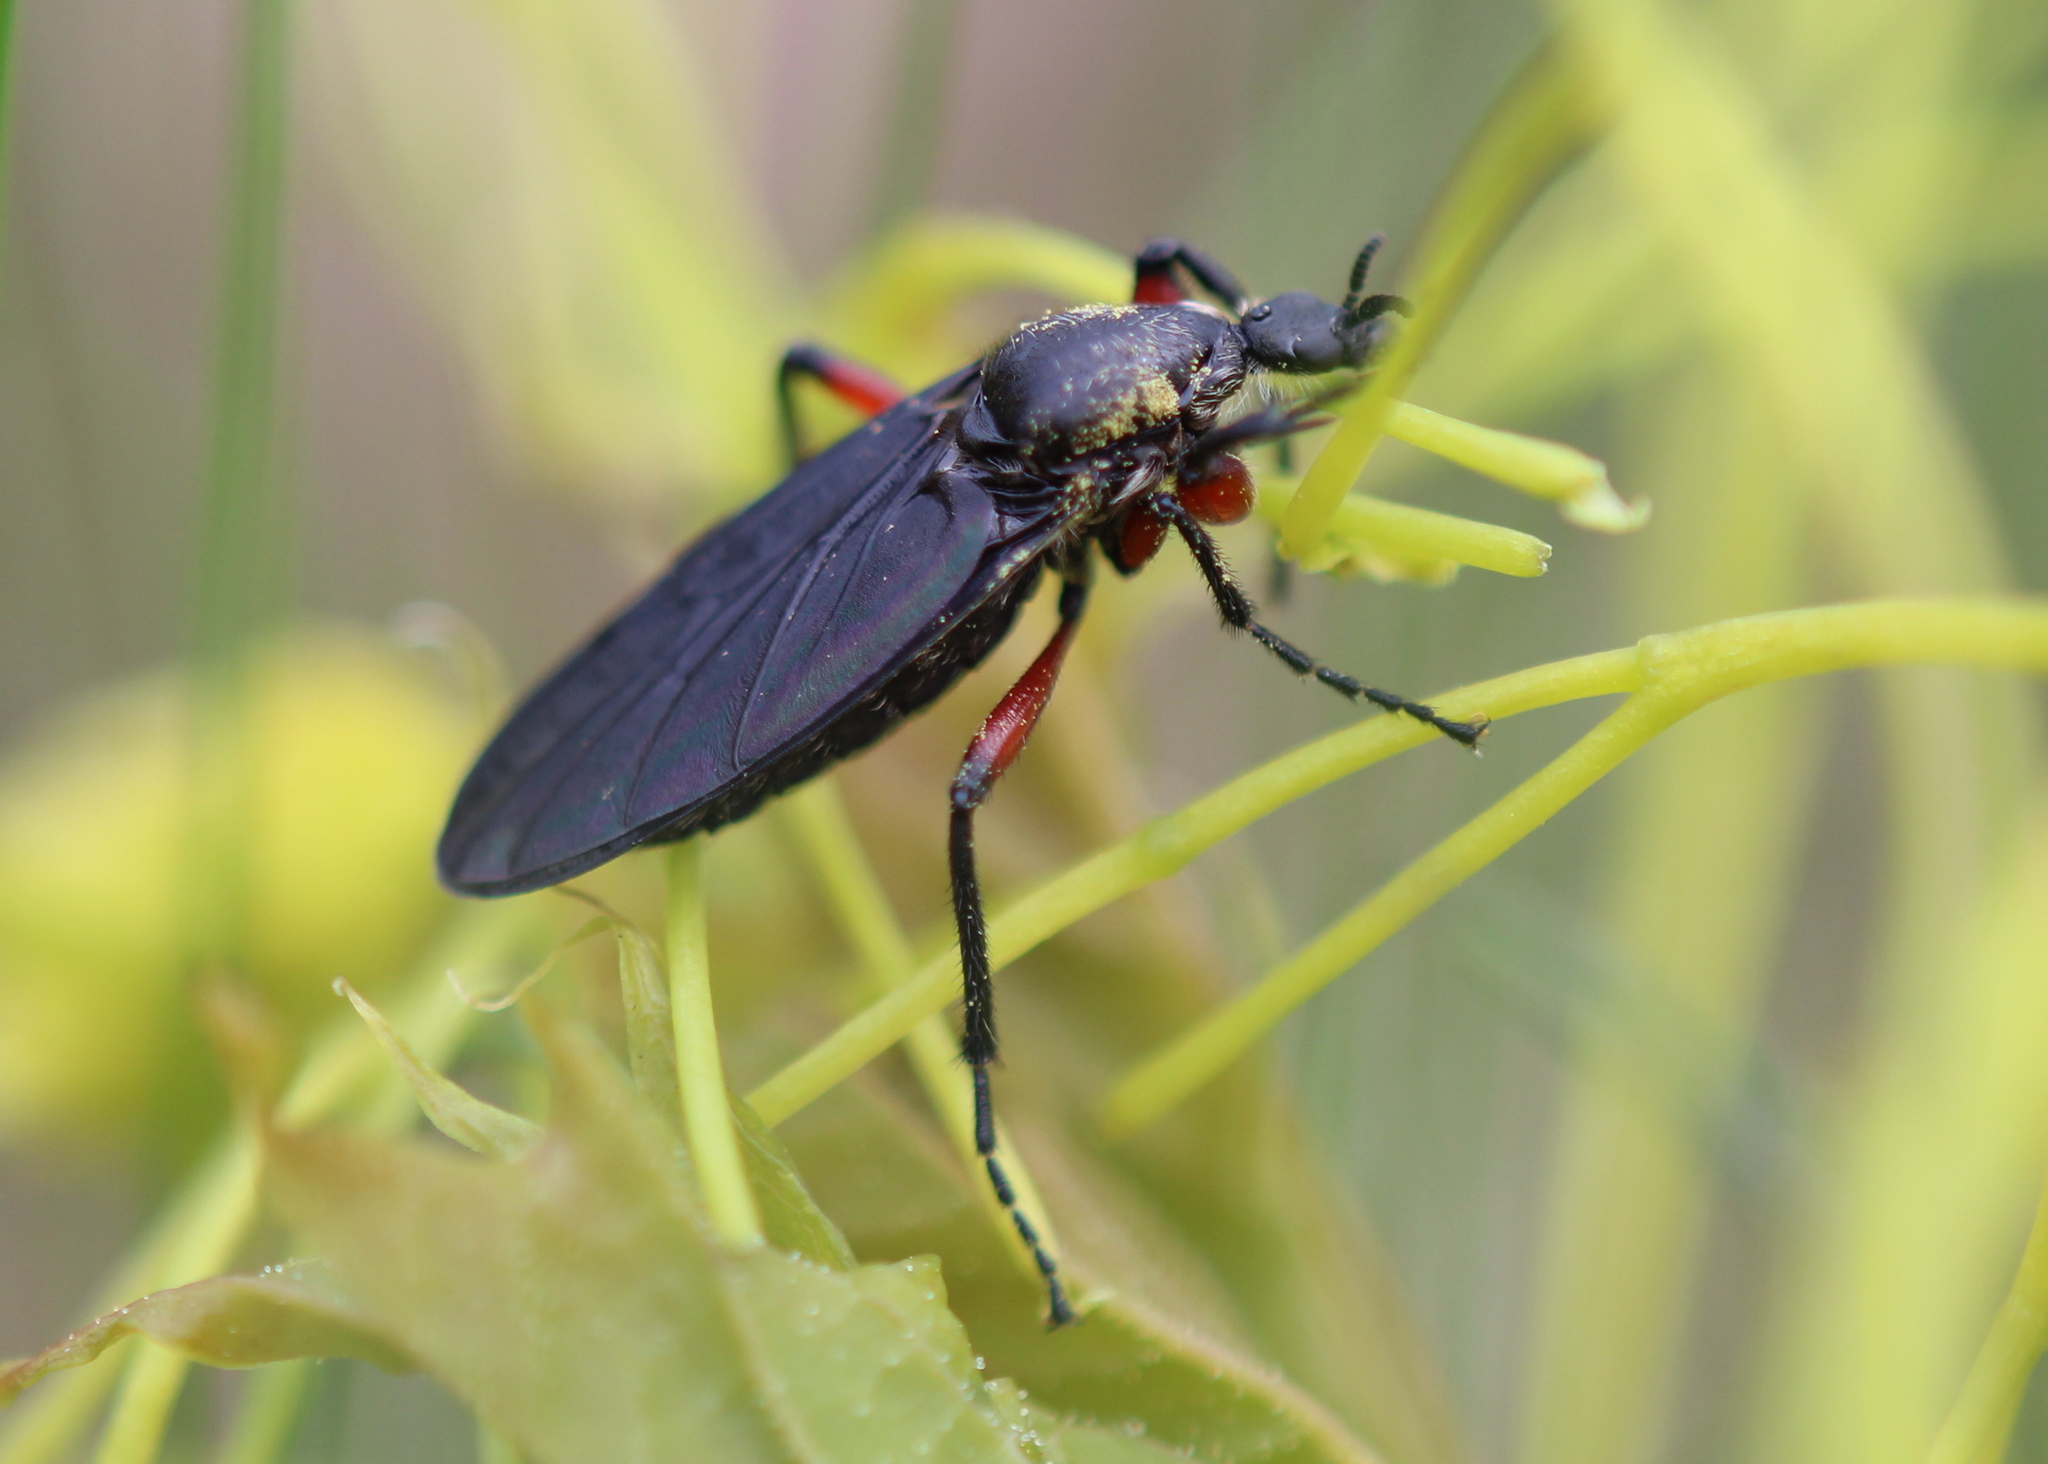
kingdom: Animalia
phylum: Arthropoda
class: Insecta
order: Diptera
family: Bibionidae
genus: Bibio
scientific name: Bibio femoratus
